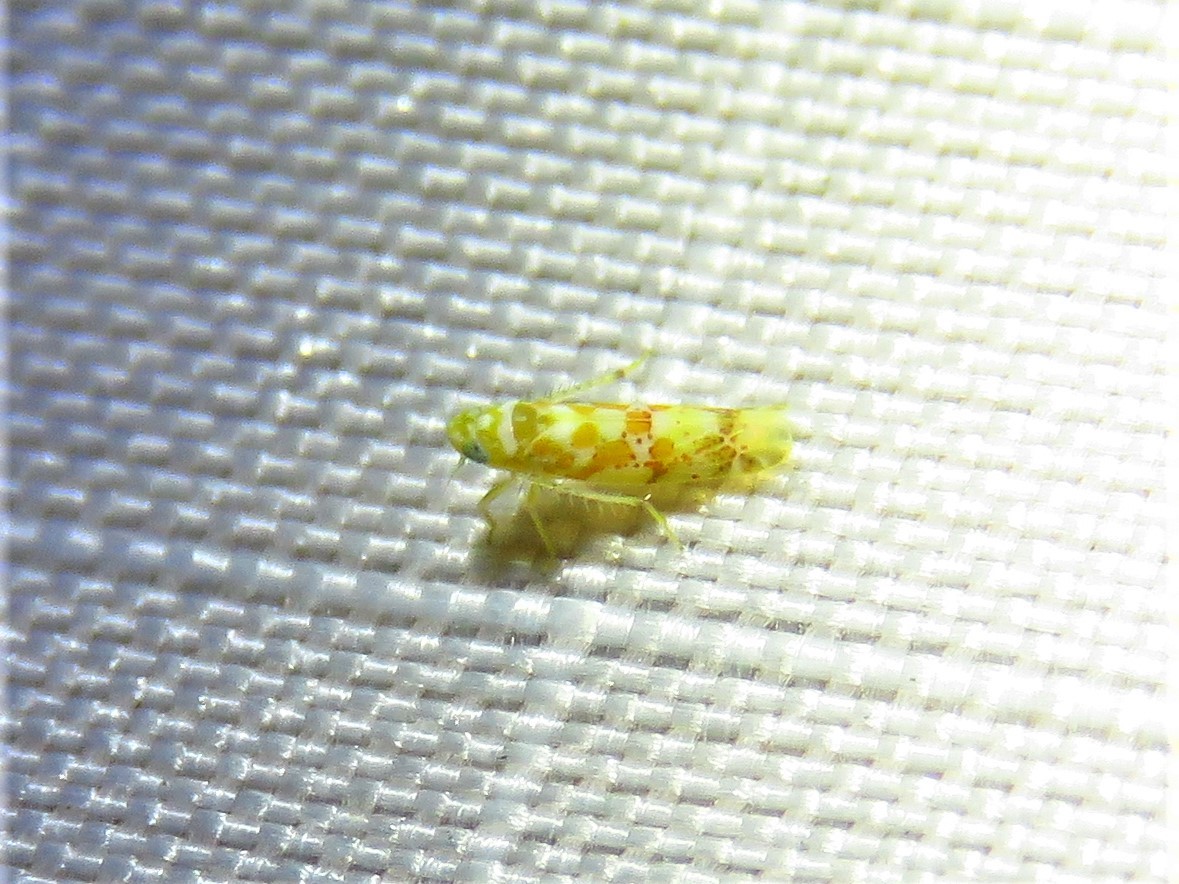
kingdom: Animalia
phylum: Arthropoda
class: Insecta
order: Hemiptera
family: Cicadellidae
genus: Dikrella
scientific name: Dikrella maculata
